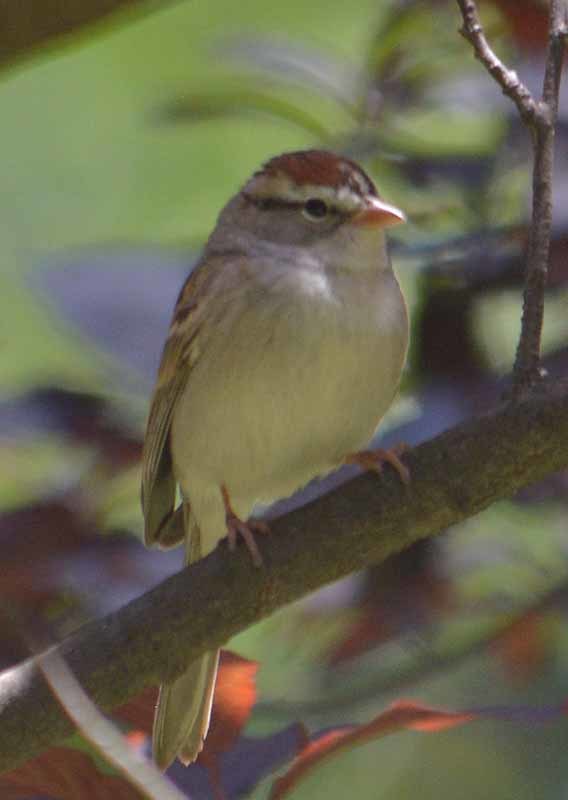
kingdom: Animalia
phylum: Chordata
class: Aves
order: Passeriformes
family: Passerellidae
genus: Spizella
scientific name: Spizella passerina
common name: Chipping sparrow
